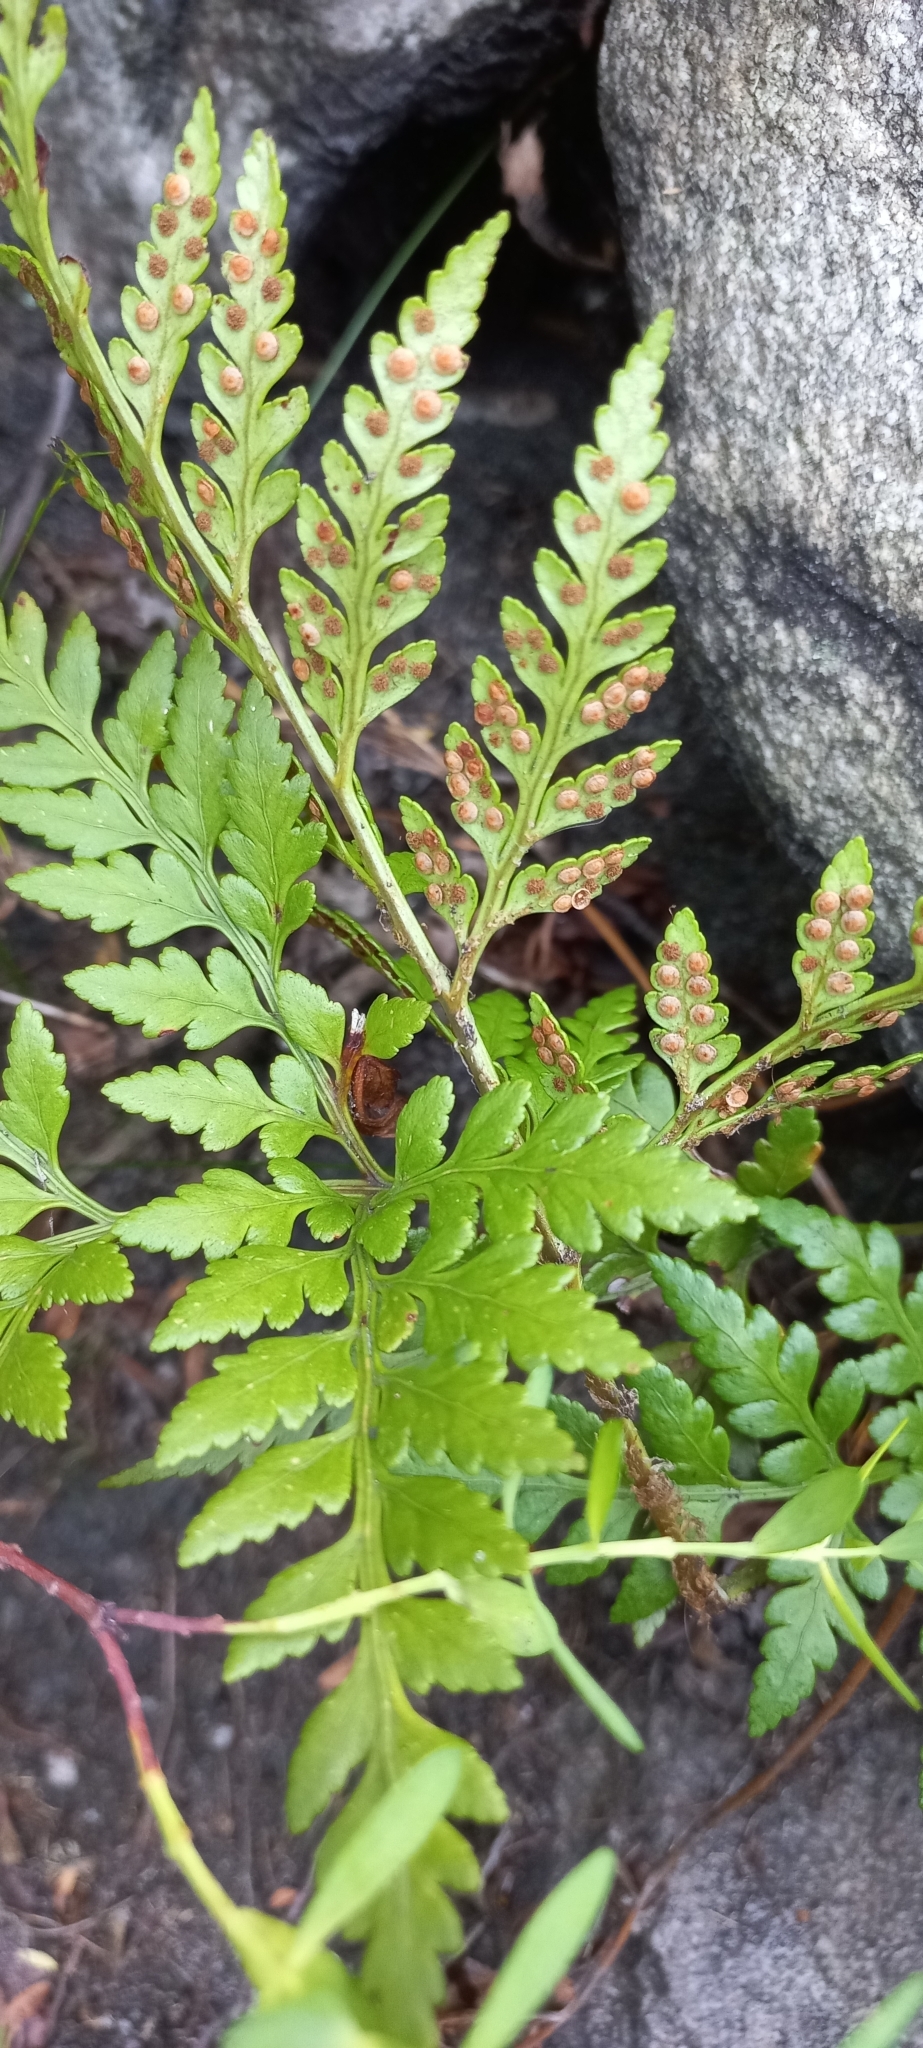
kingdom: Plantae
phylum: Tracheophyta
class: Polypodiopsida
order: Polypodiales
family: Dryopteridaceae
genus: Rumohra
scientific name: Rumohra adiantiformis
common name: Leather fern
